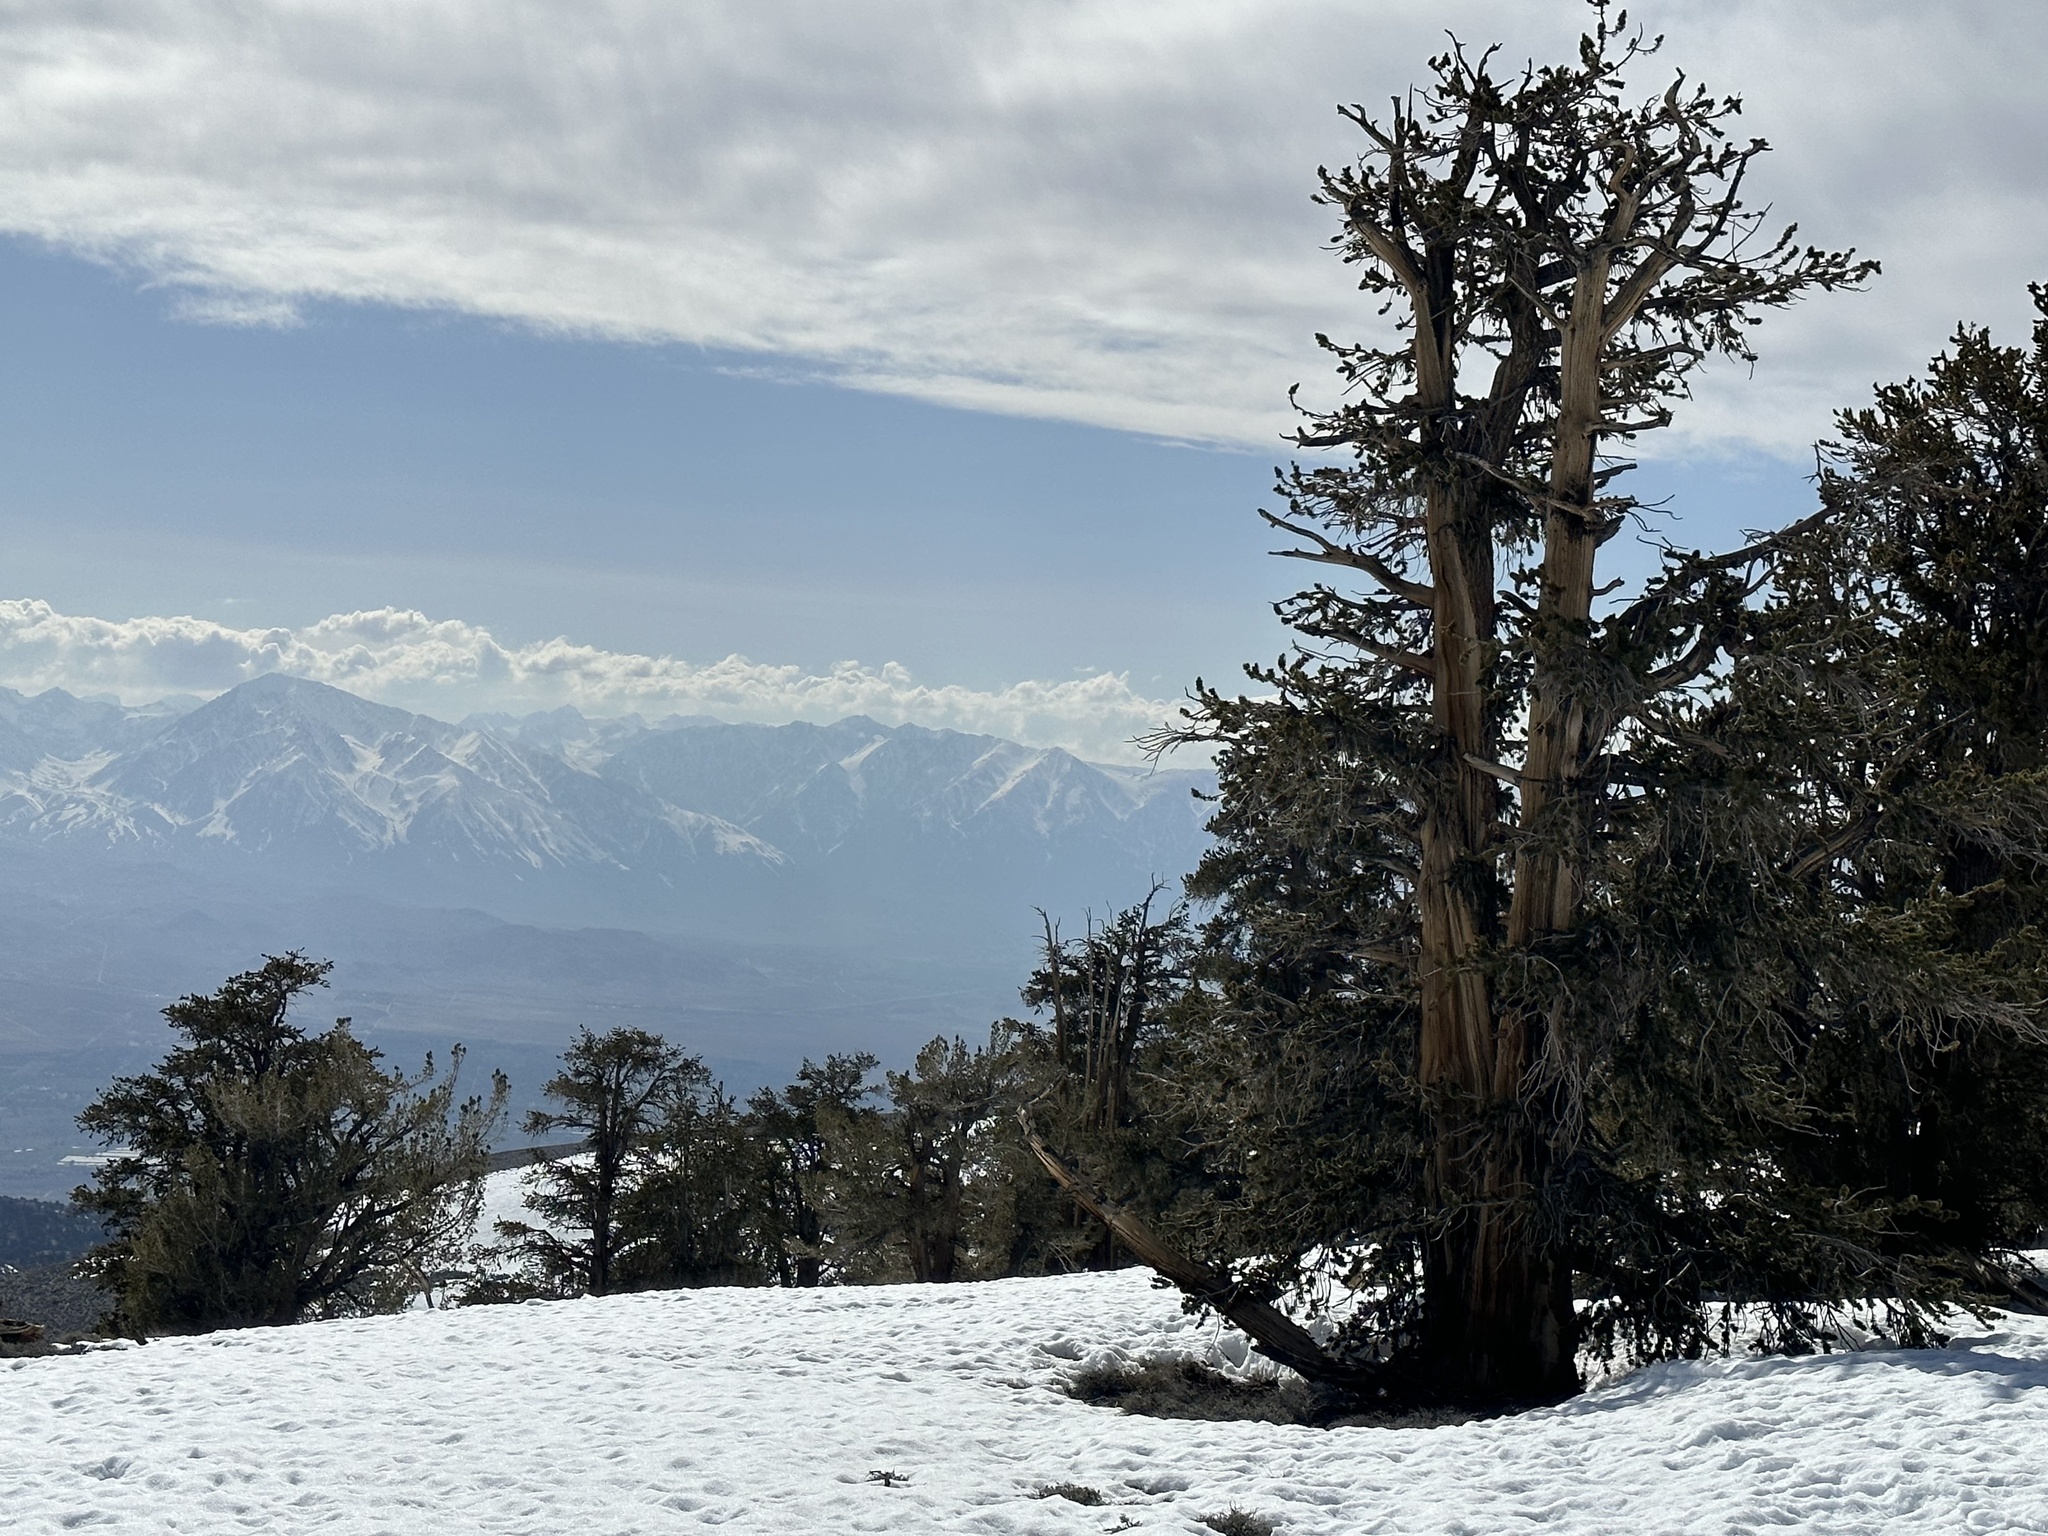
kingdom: Plantae
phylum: Tracheophyta
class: Pinopsida
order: Pinales
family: Pinaceae
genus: Pinus
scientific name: Pinus longaeva
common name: Intermountain bristlecone pine
